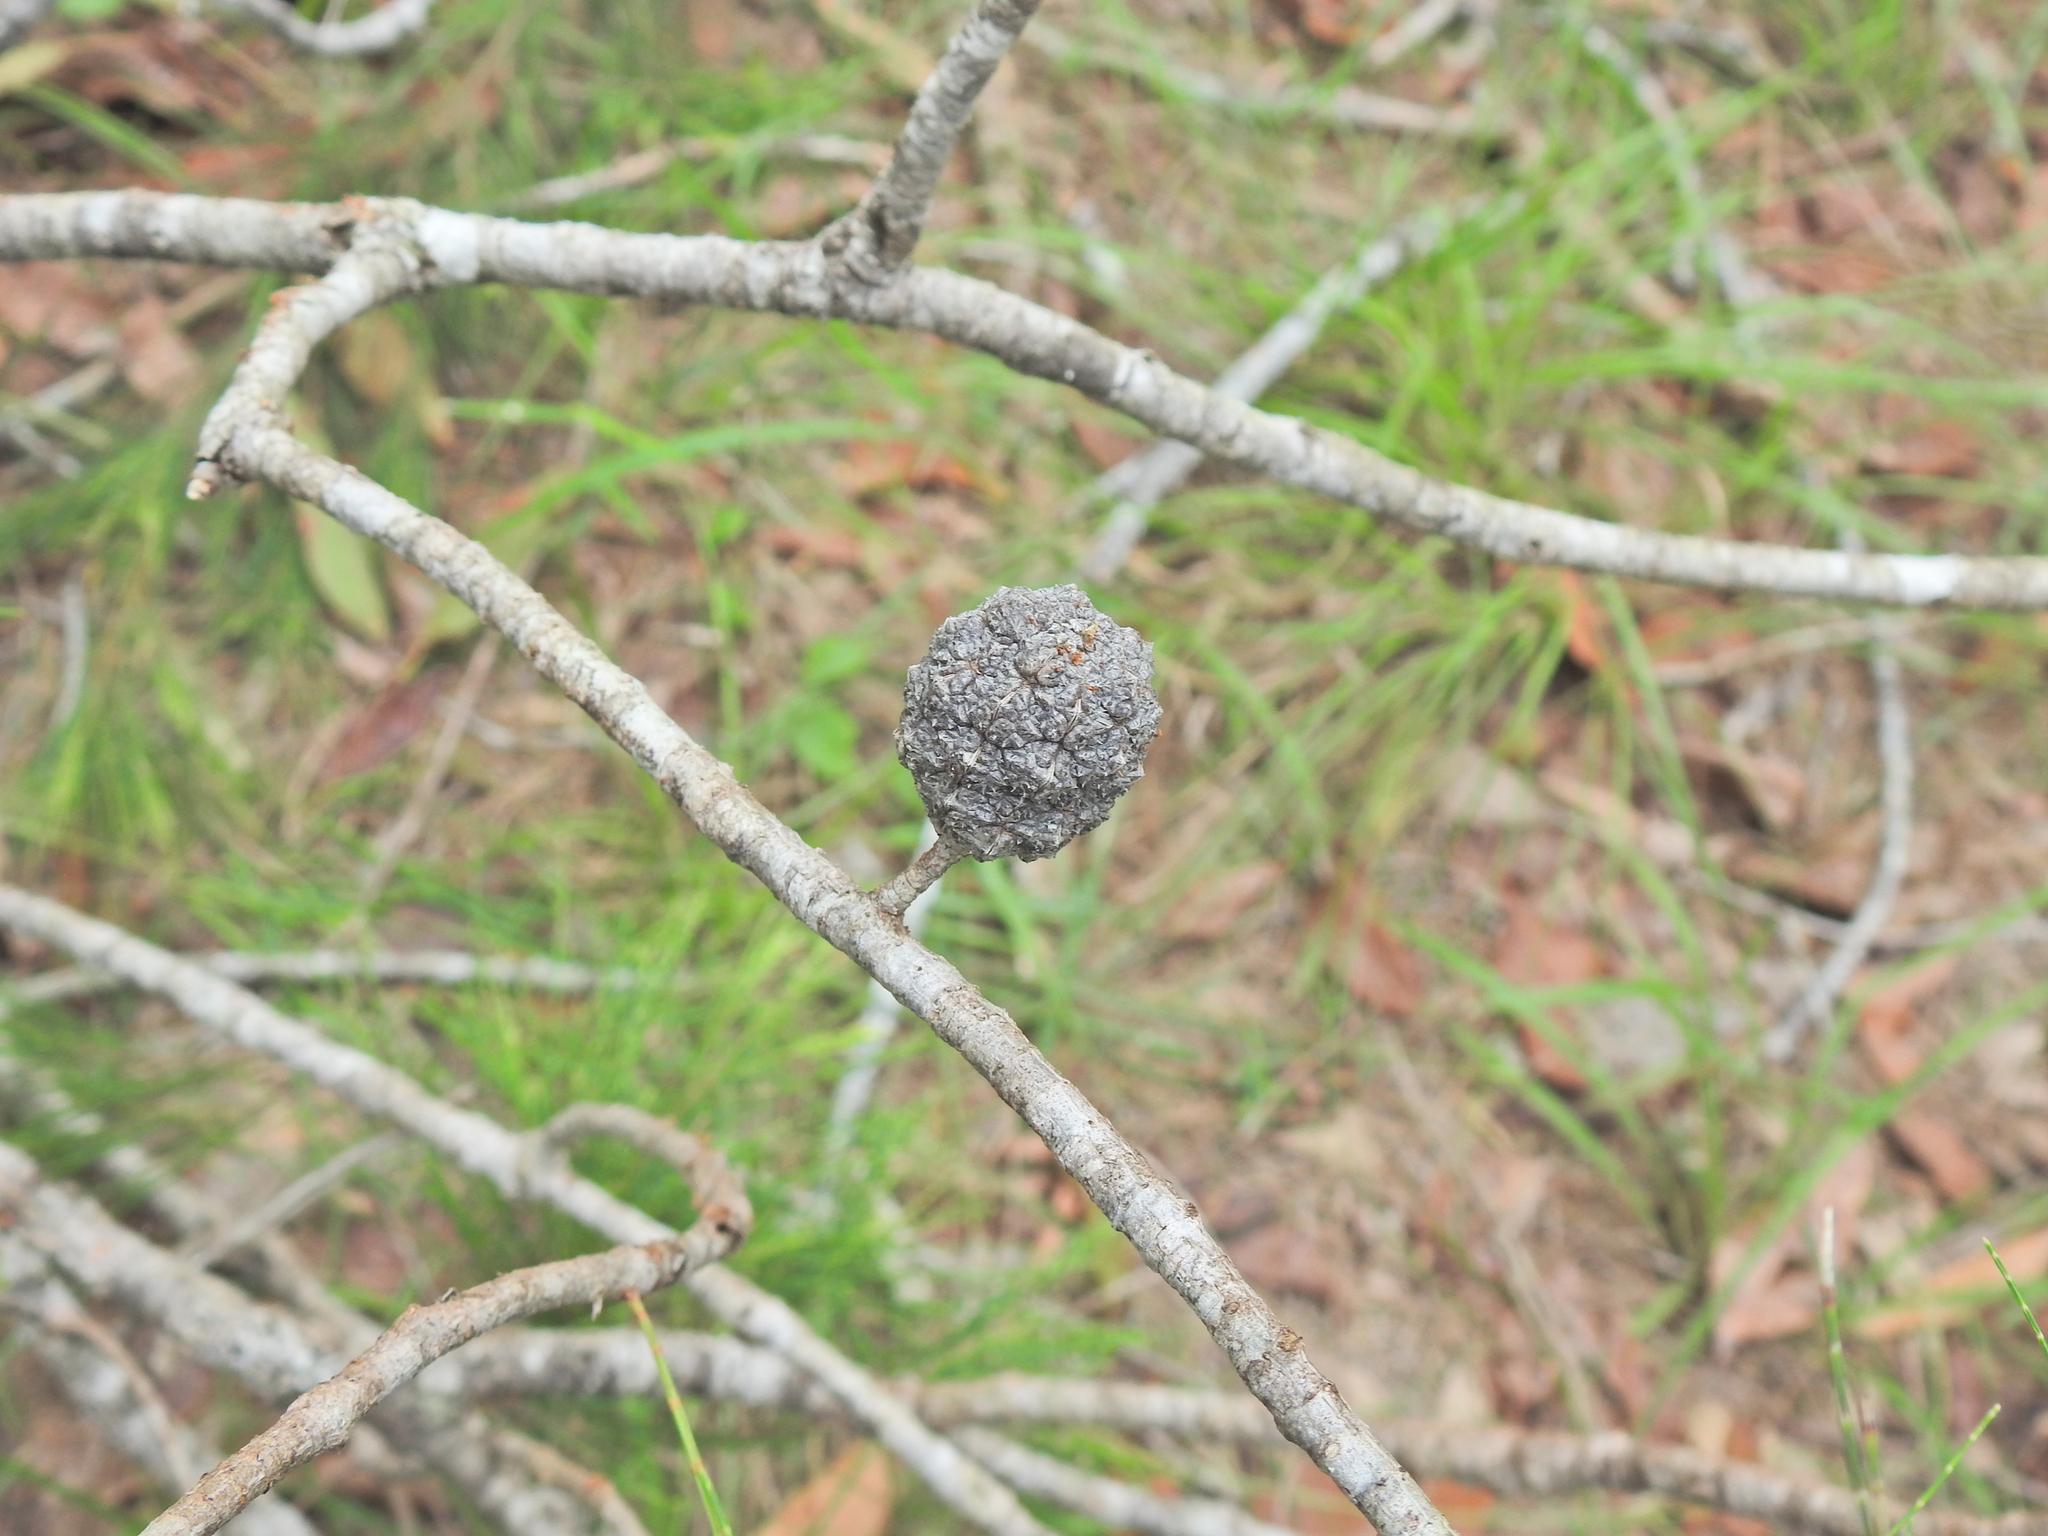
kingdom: Plantae
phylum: Tracheophyta
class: Magnoliopsida
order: Fagales
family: Casuarinaceae
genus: Allocasuarina
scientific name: Allocasuarina torulosa
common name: Forest-oak
